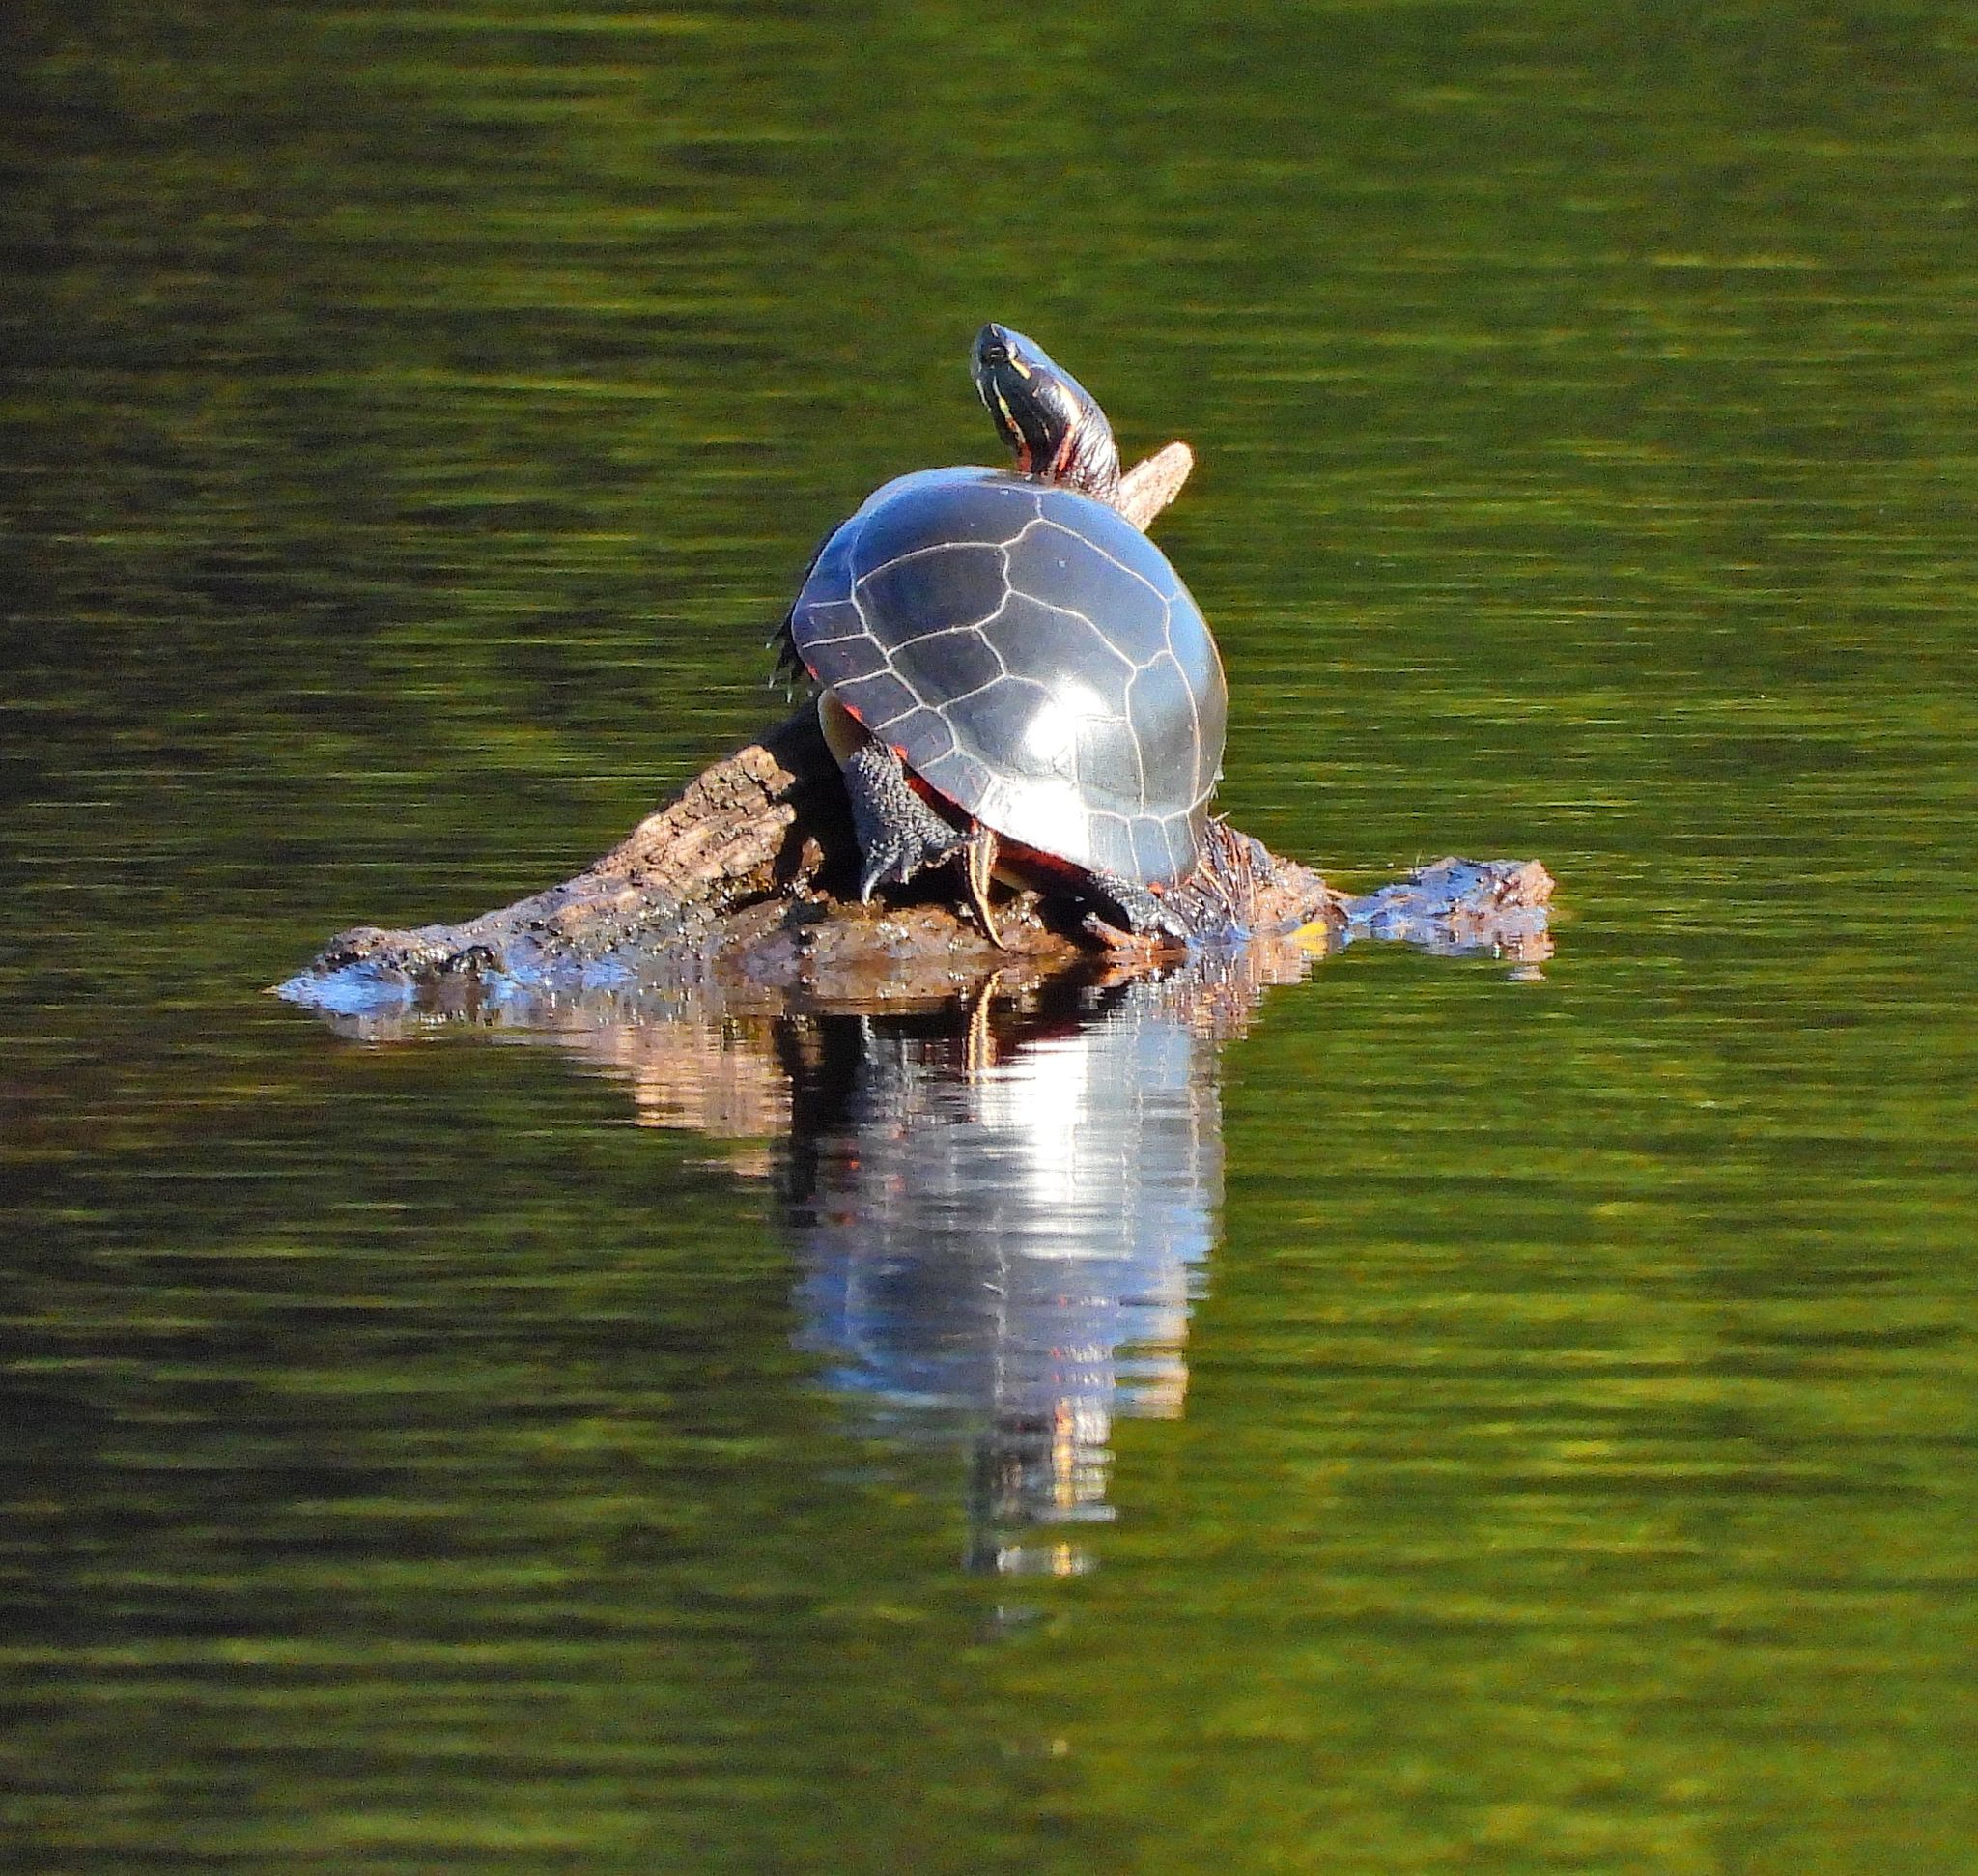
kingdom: Animalia
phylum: Chordata
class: Testudines
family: Emydidae
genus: Chrysemys
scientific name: Chrysemys picta
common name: Painted turtle
